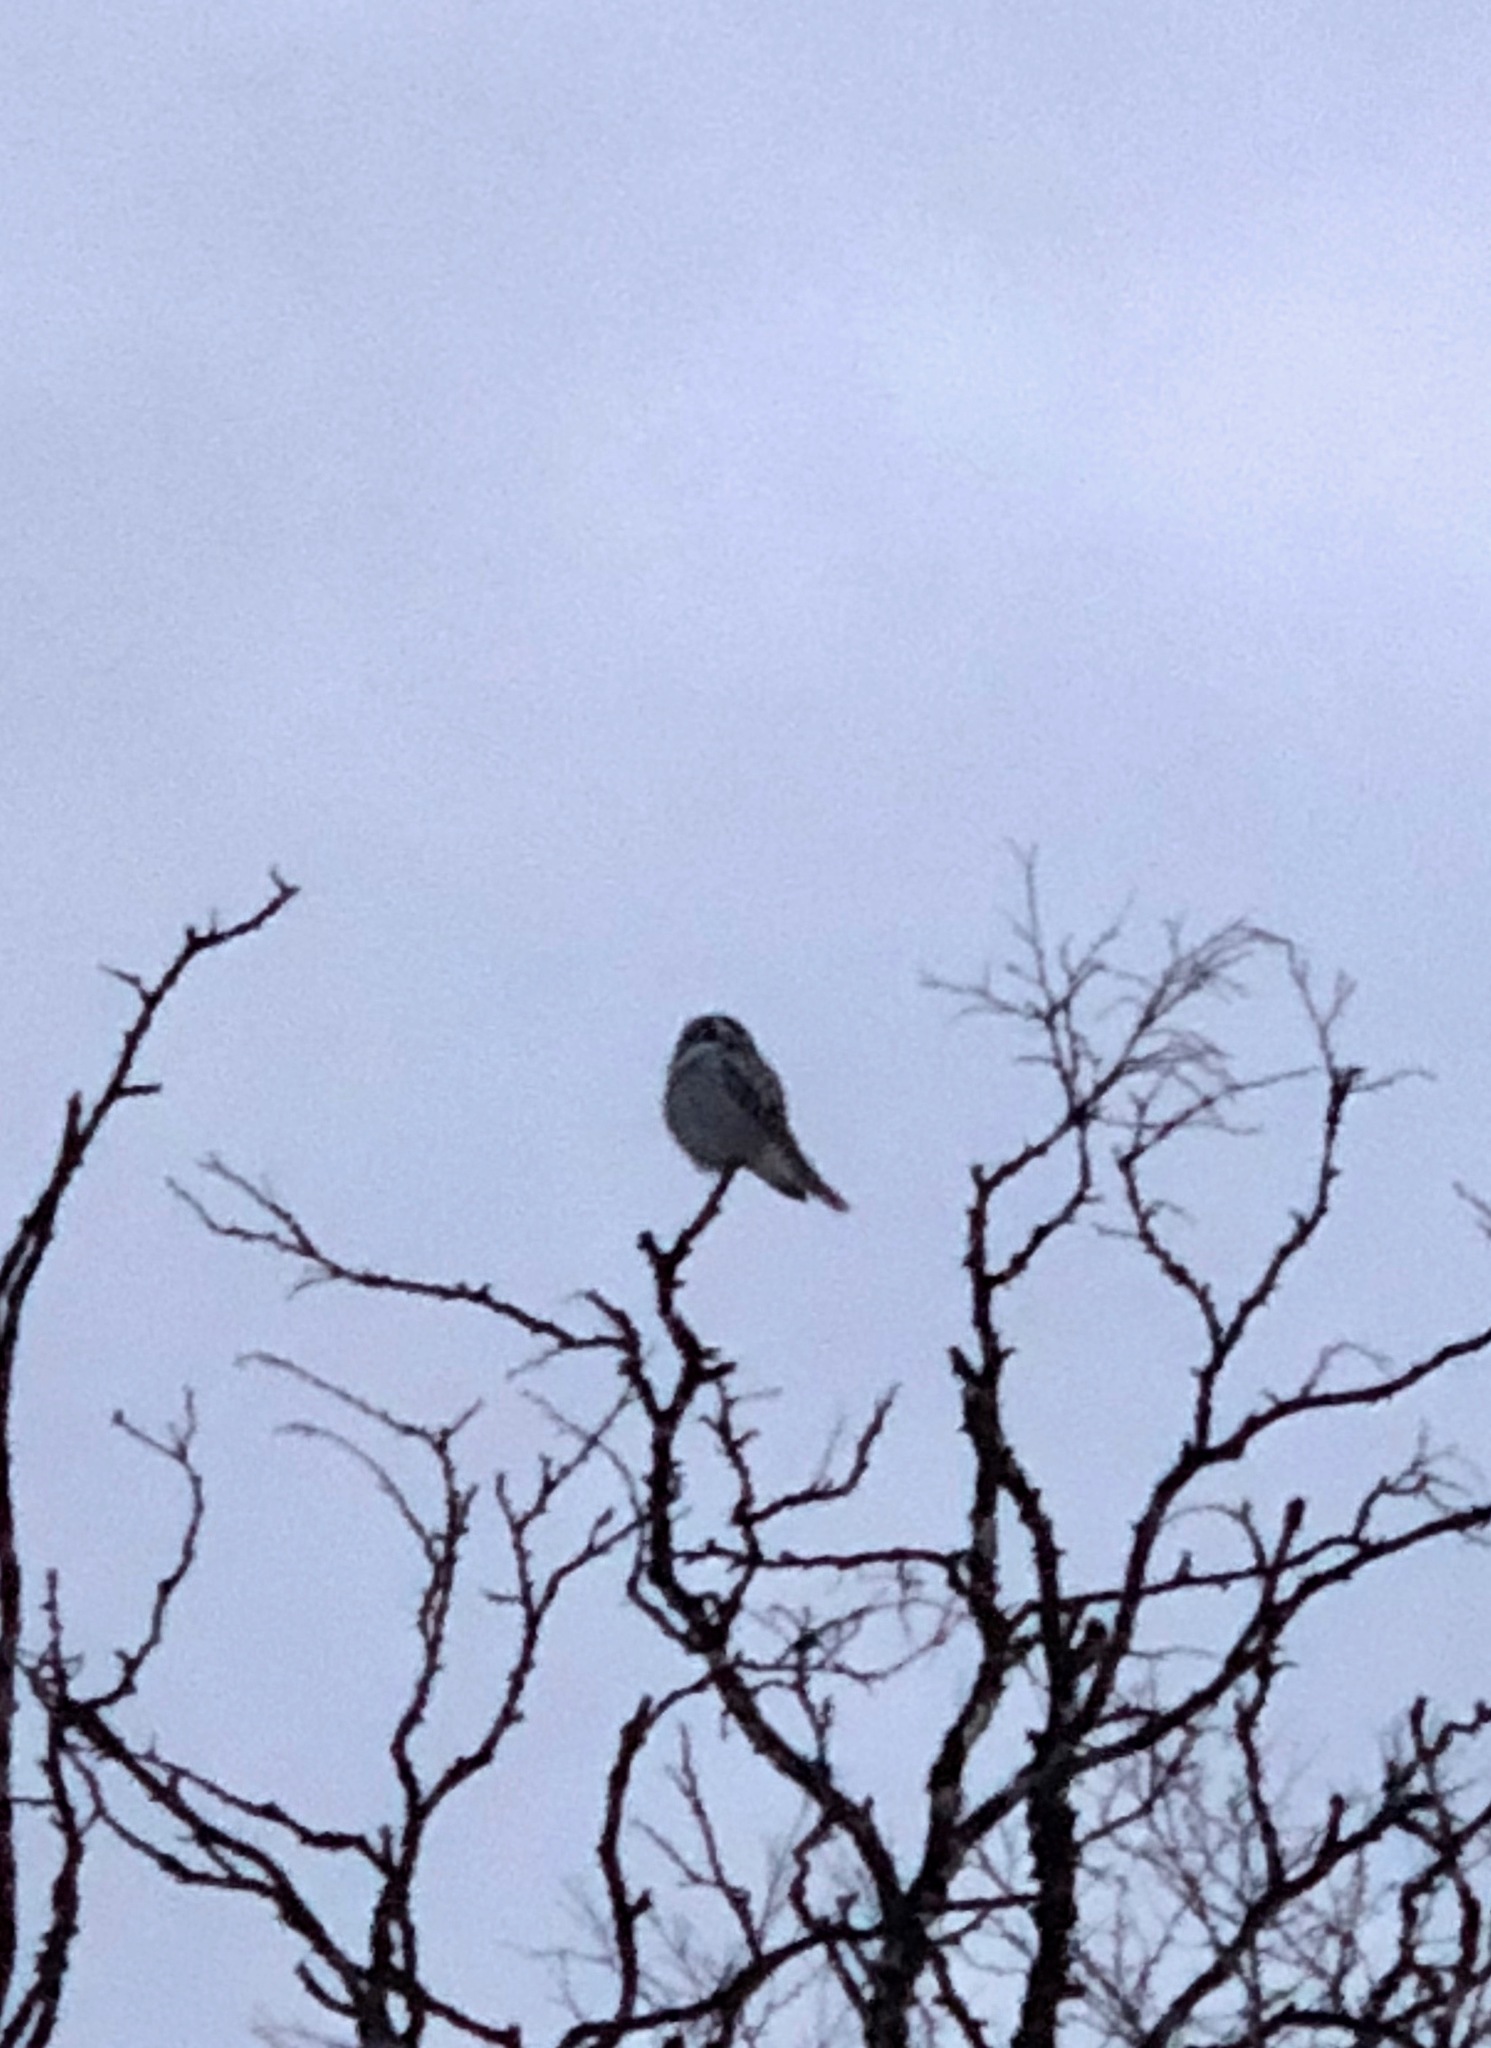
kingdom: Animalia
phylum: Chordata
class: Aves
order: Strigiformes
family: Strigidae
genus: Surnia
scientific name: Surnia ulula
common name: Northern hawk-owl
